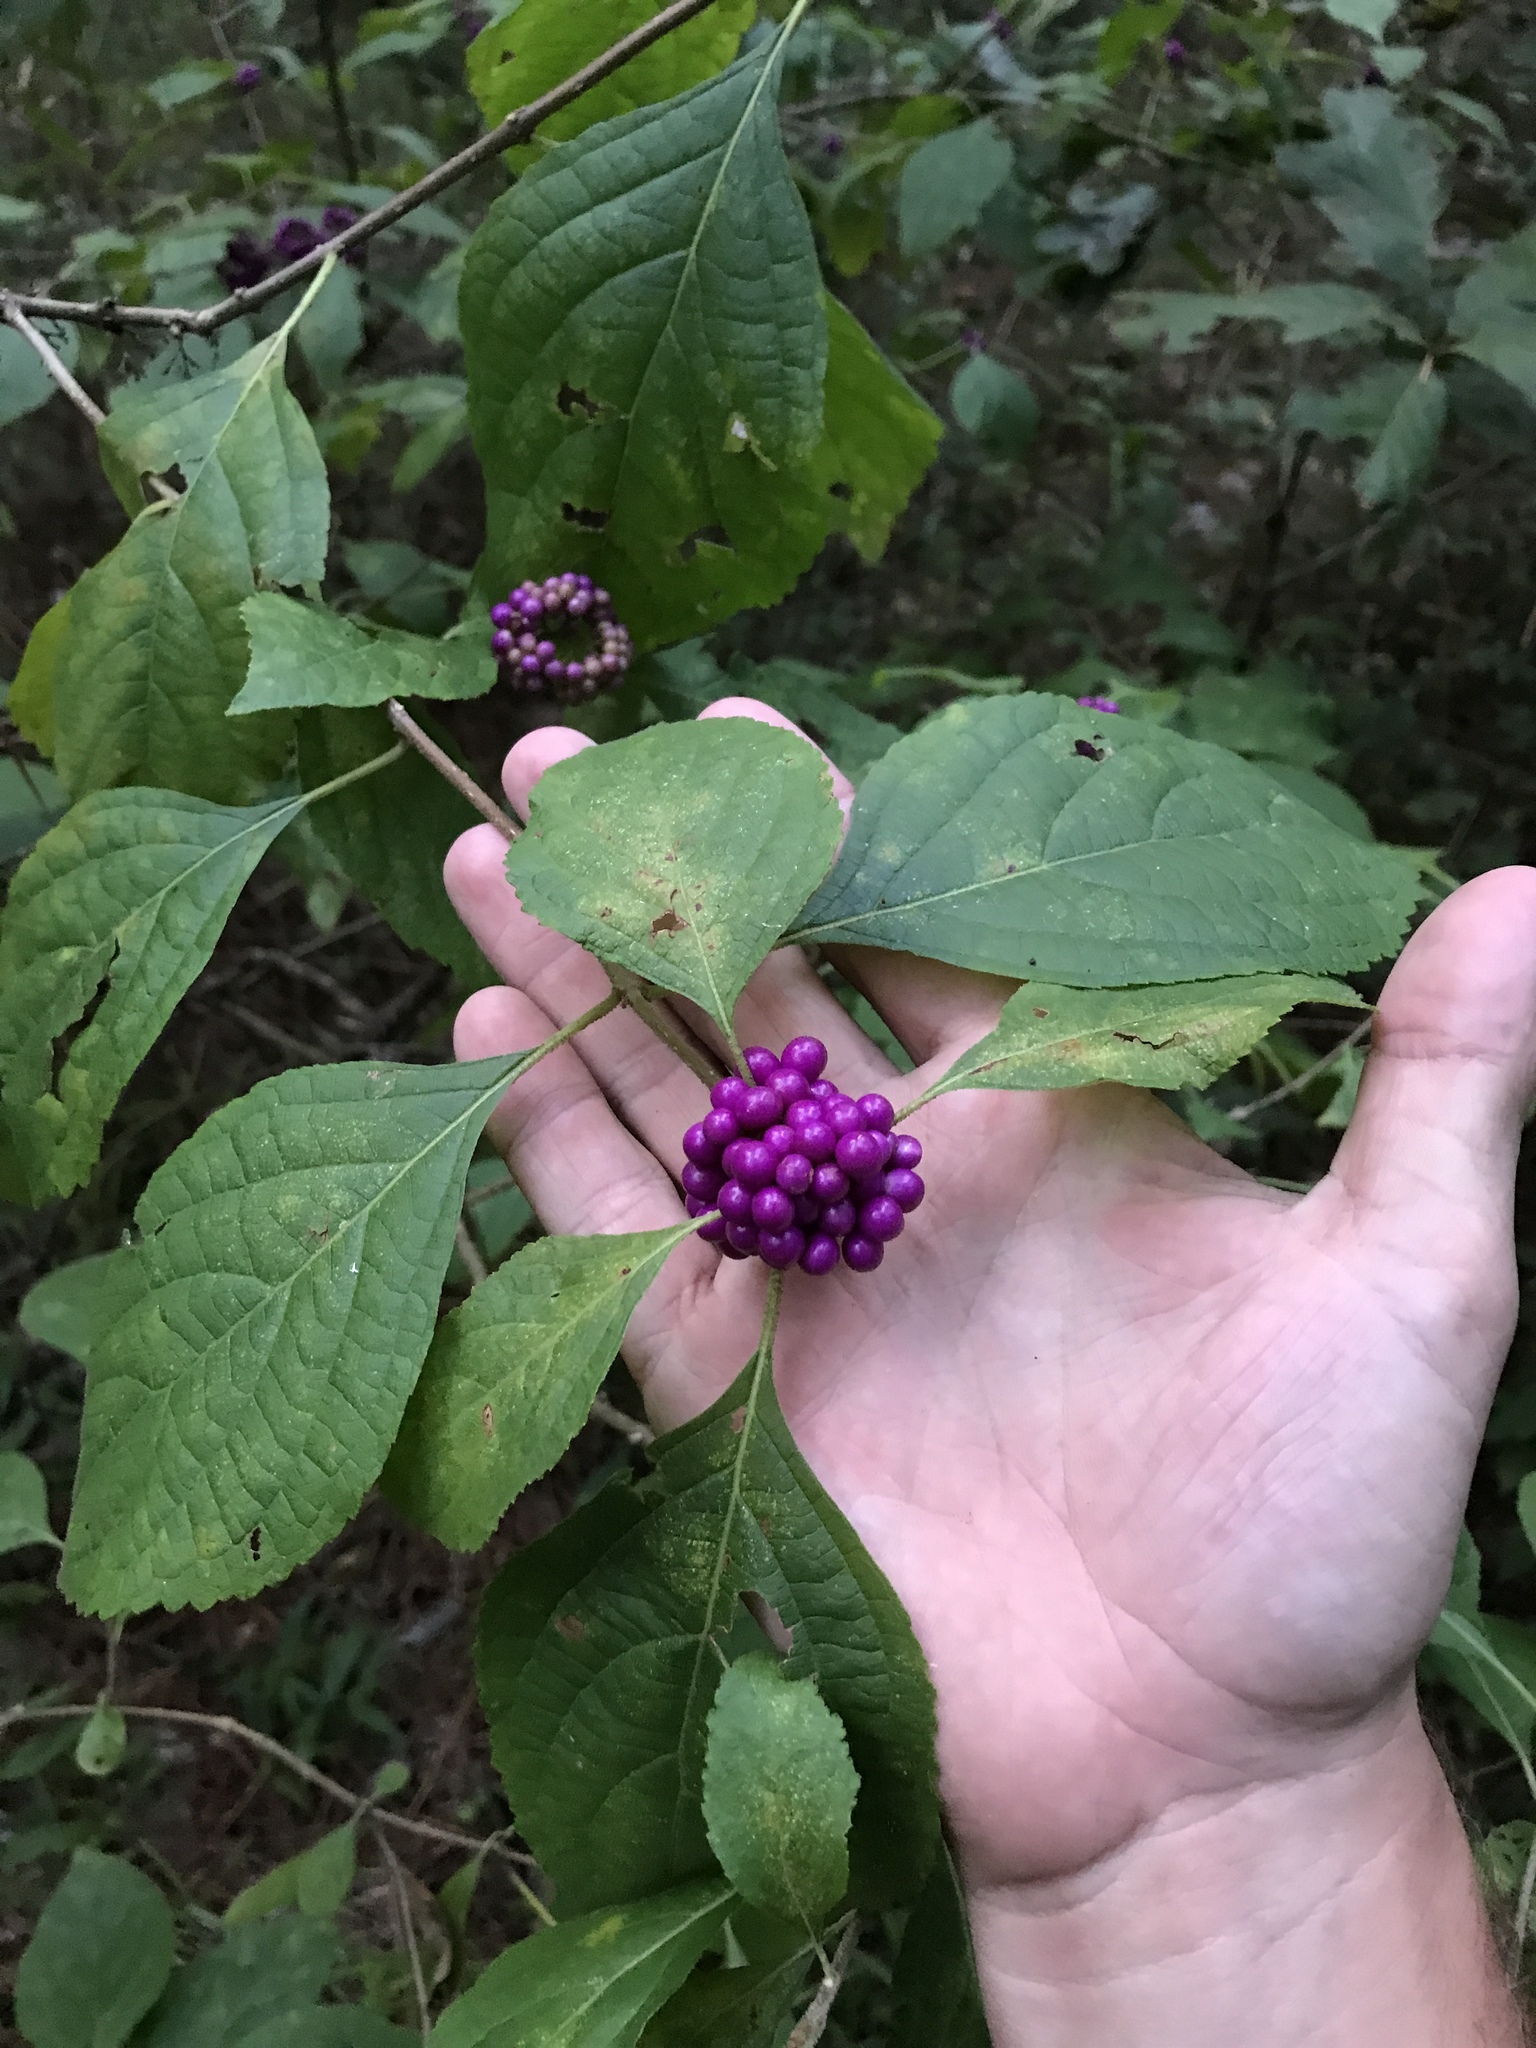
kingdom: Plantae
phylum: Tracheophyta
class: Magnoliopsida
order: Lamiales
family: Lamiaceae
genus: Callicarpa
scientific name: Callicarpa americana
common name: American beautyberry
